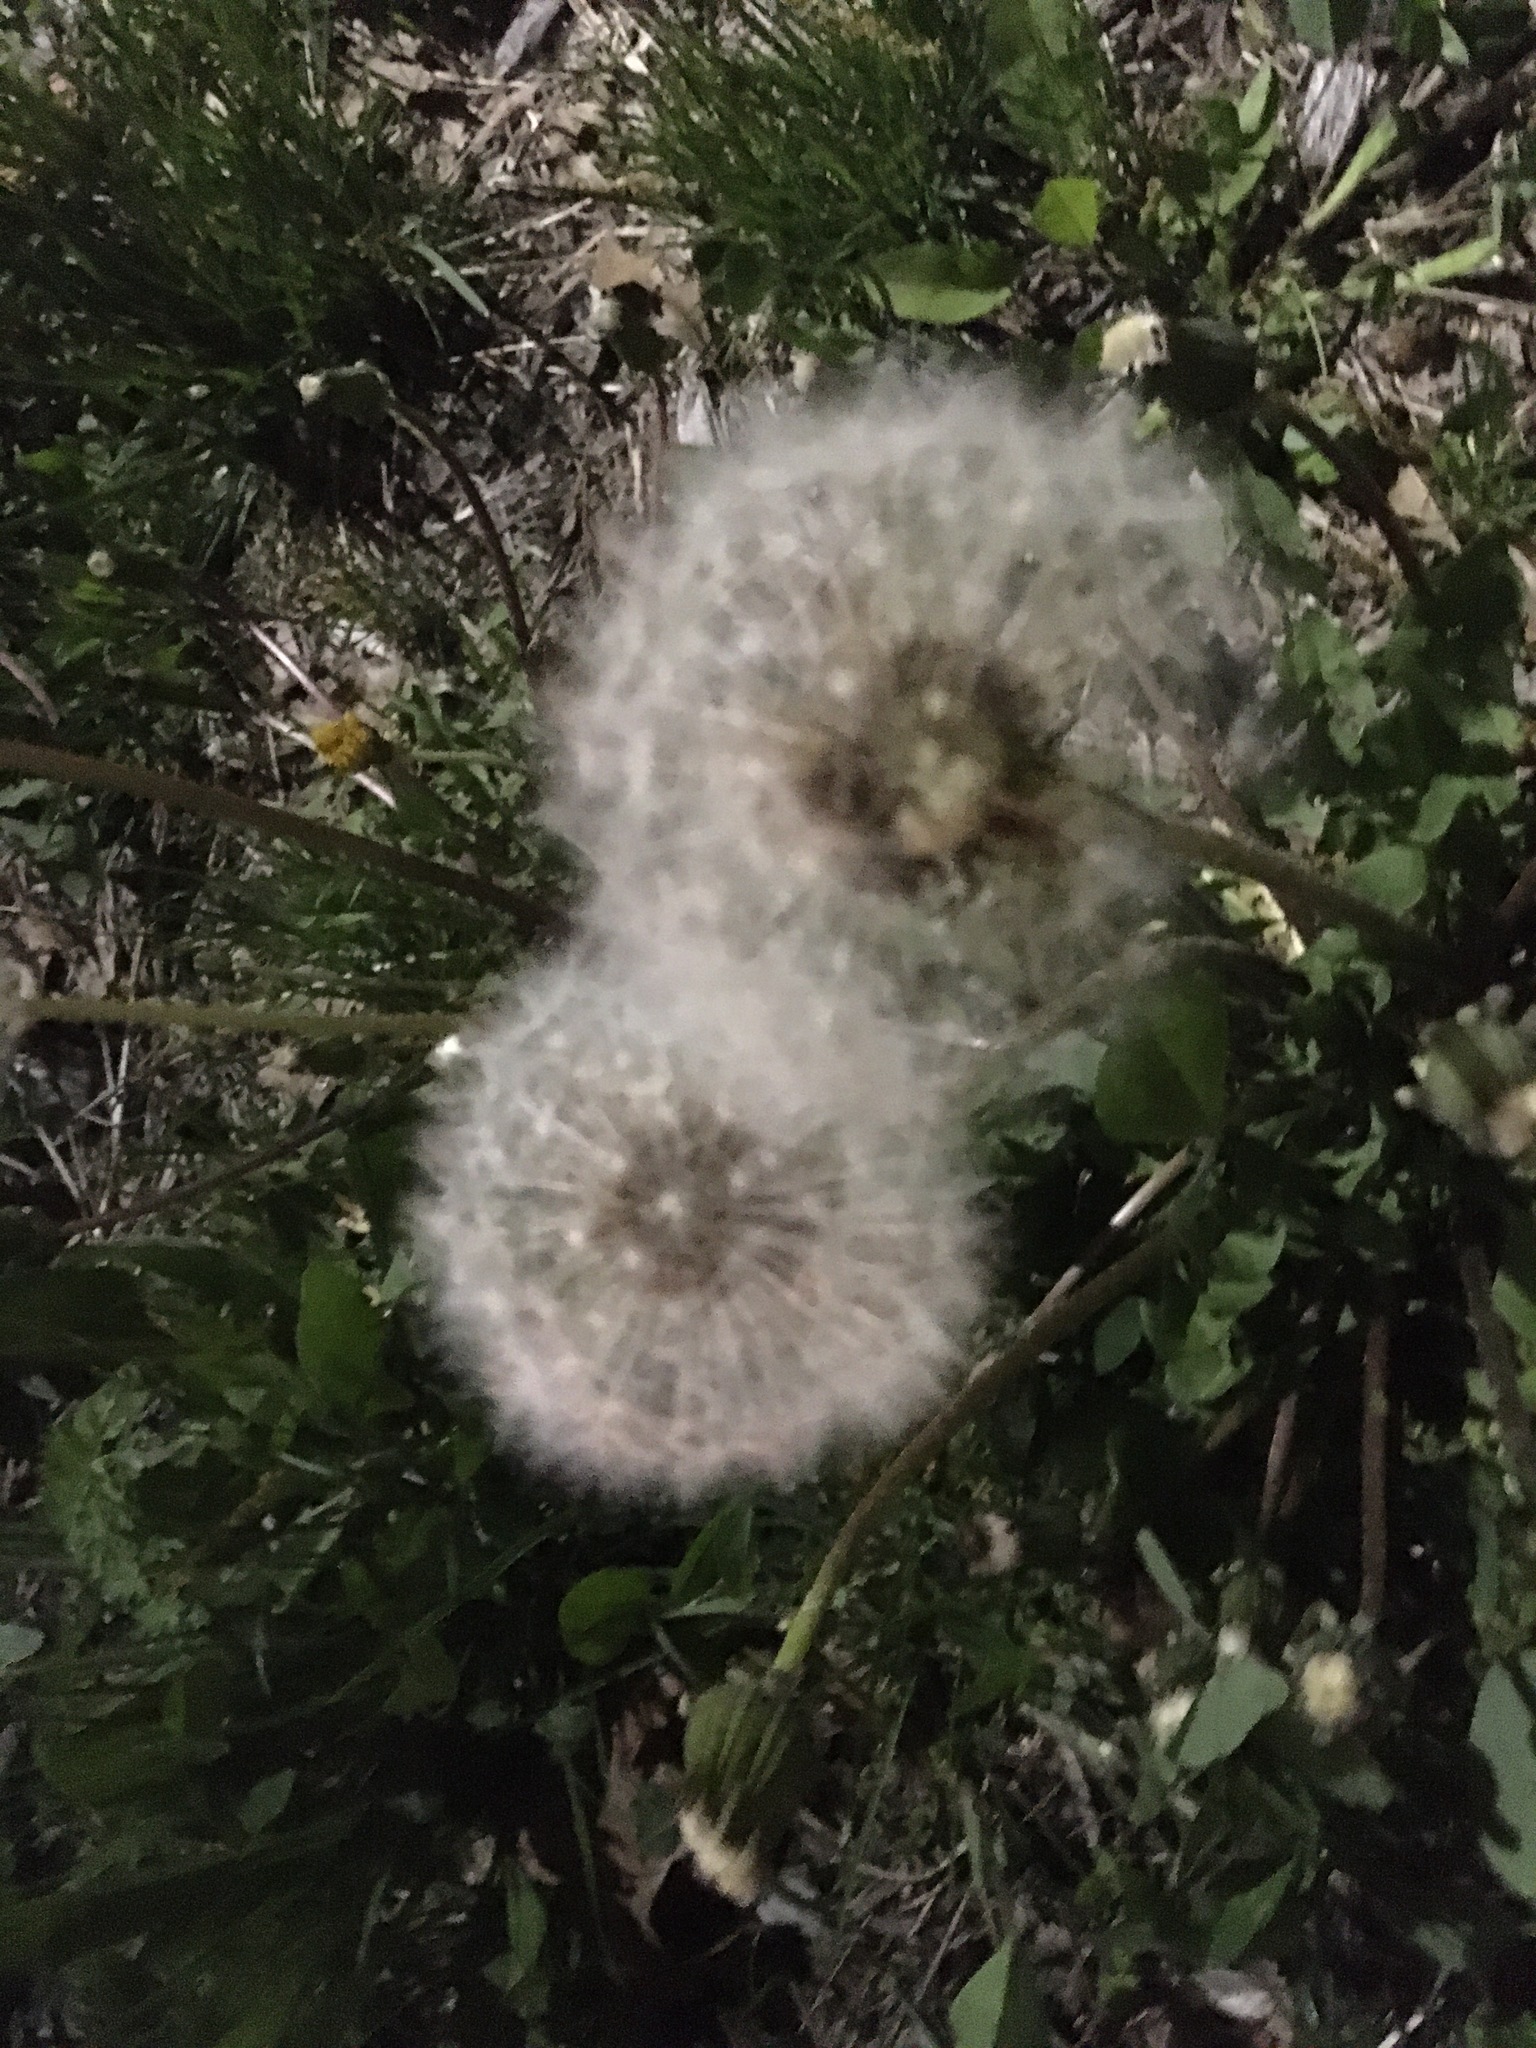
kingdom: Plantae
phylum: Tracheophyta
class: Magnoliopsida
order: Asterales
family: Asteraceae
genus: Taraxacum
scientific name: Taraxacum officinale
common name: Common dandelion
